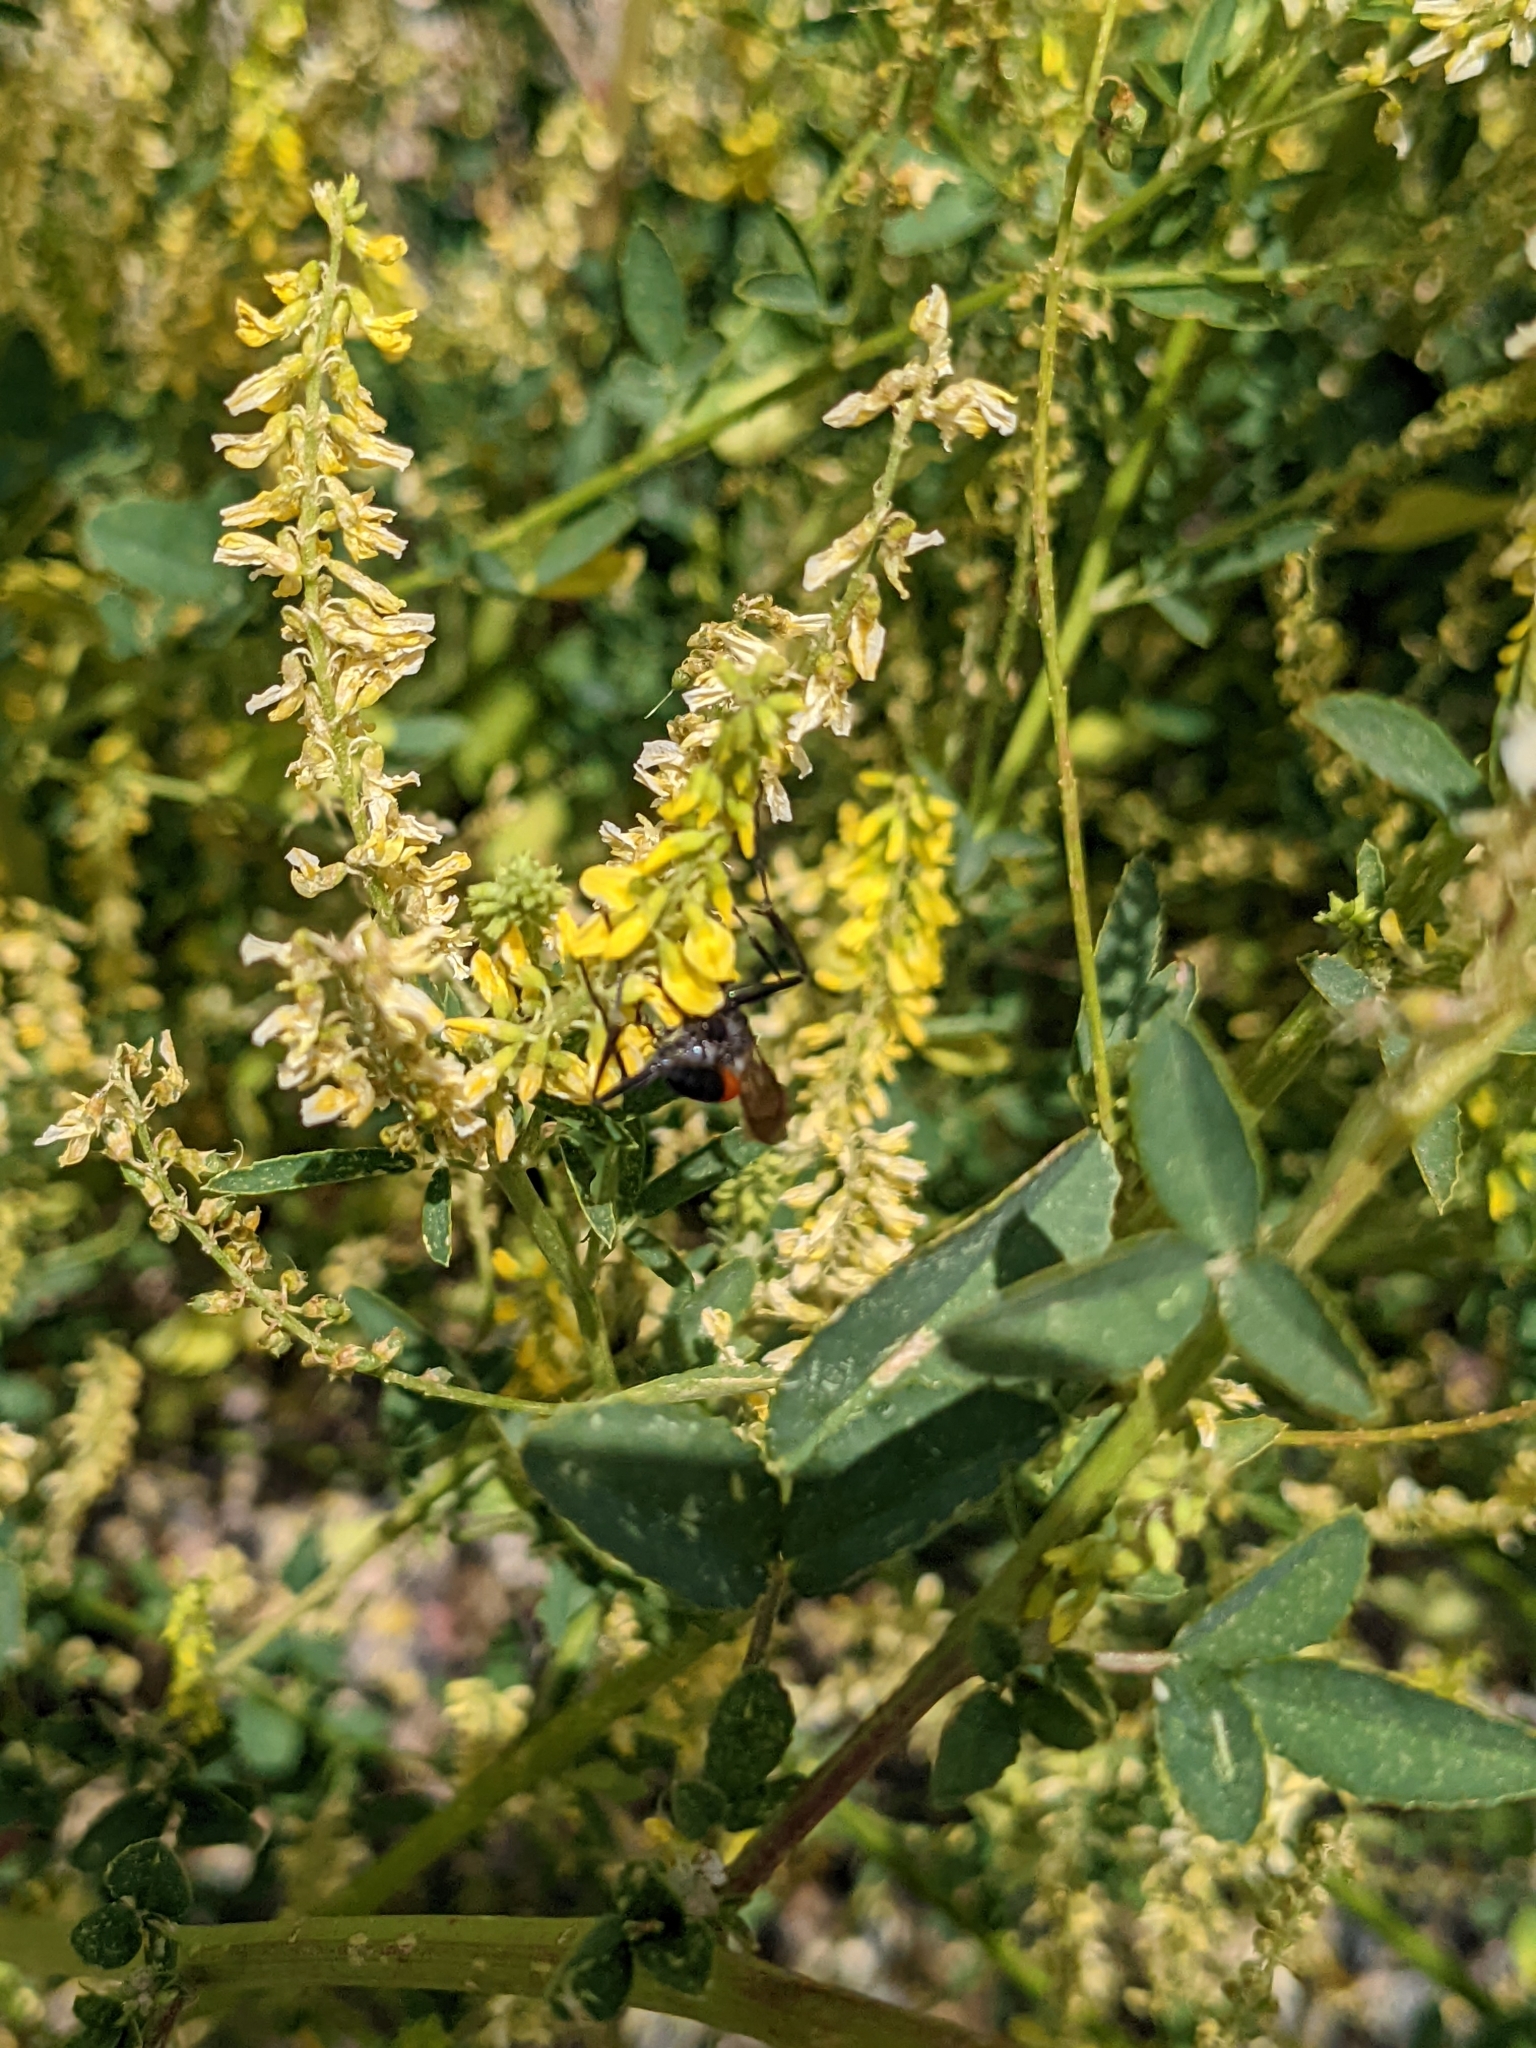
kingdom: Plantae
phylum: Tracheophyta
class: Magnoliopsida
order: Fabales
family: Fabaceae
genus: Melilotus
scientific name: Melilotus officinalis
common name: Sweetclover
